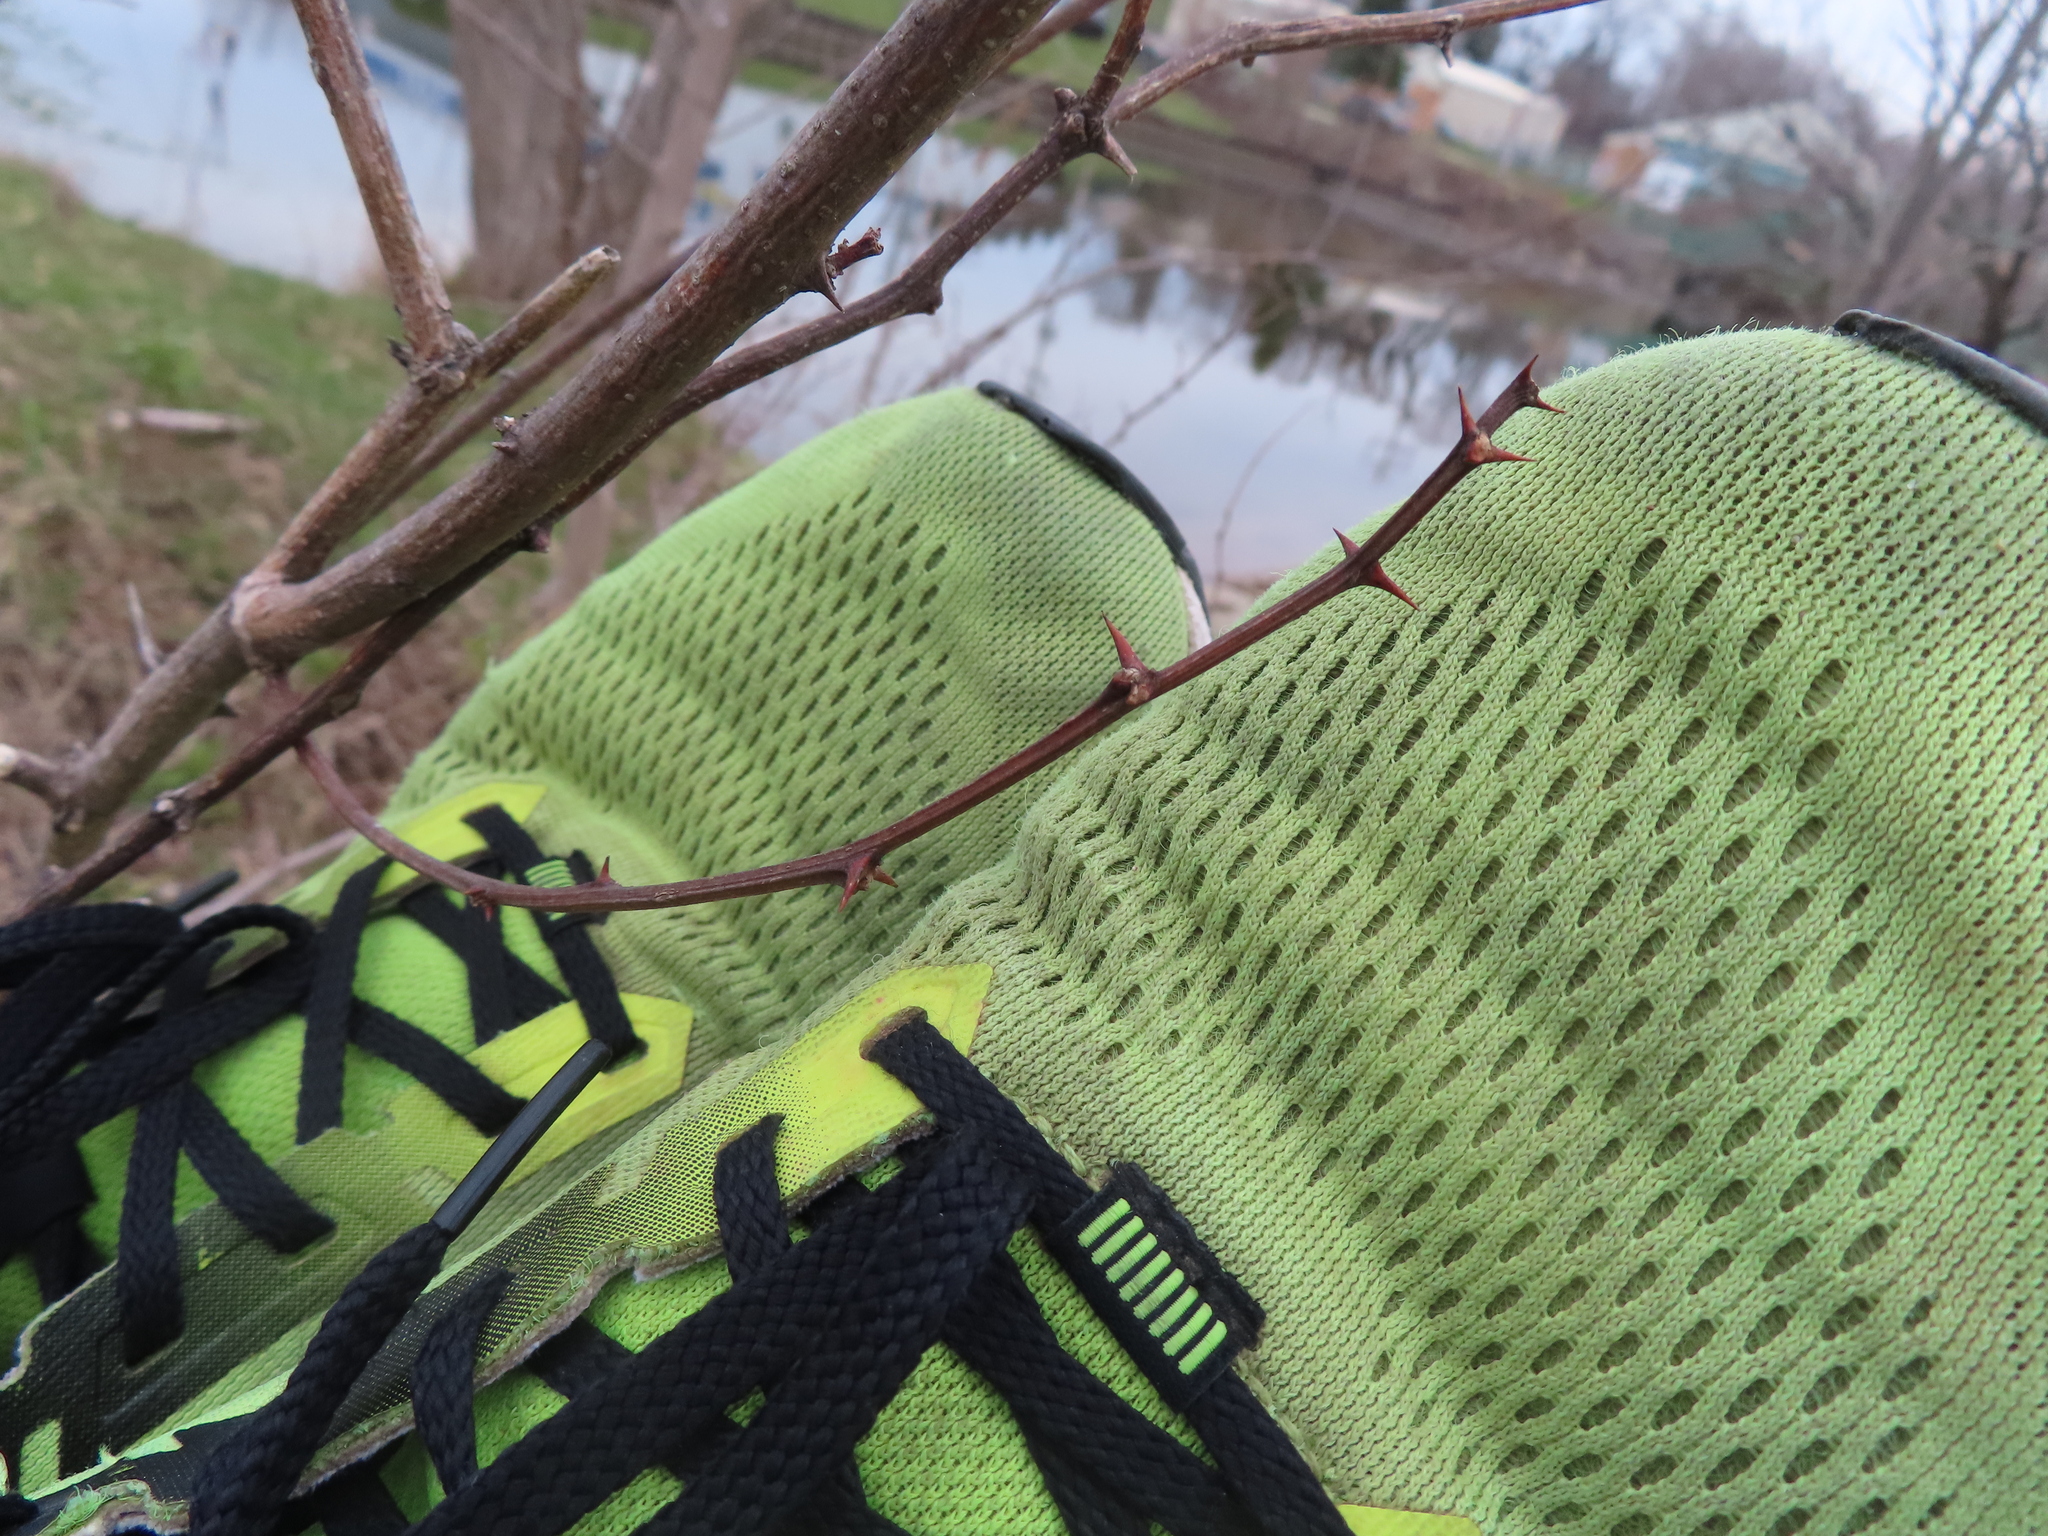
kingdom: Plantae
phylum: Tracheophyta
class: Magnoliopsida
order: Fabales
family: Fabaceae
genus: Robinia
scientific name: Robinia pseudoacacia
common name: Black locust
